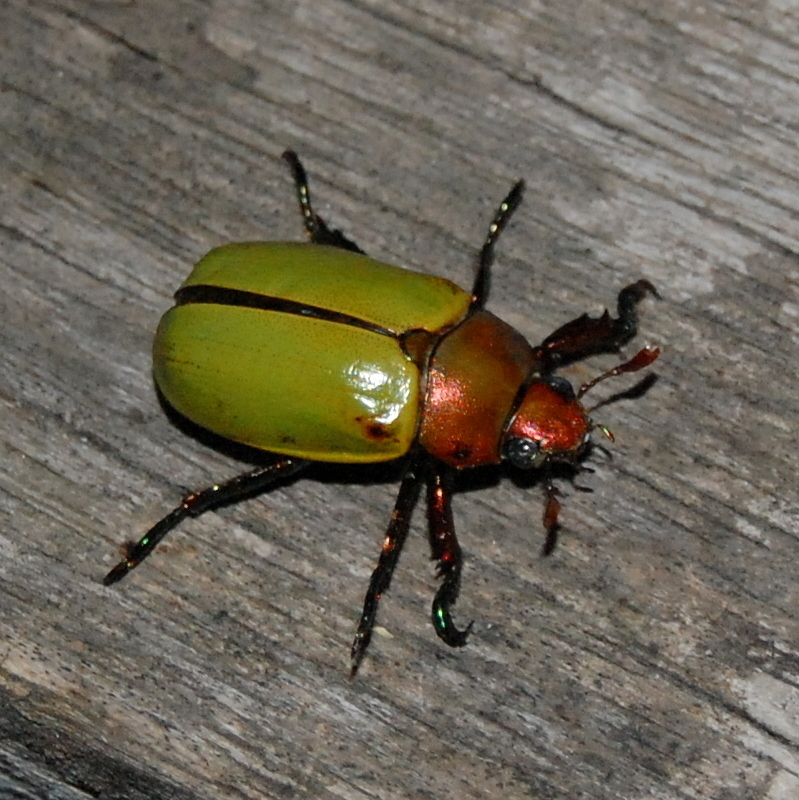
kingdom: Animalia
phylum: Arthropoda
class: Insecta
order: Coleoptera
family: Scarabaeidae
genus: Pelidnota
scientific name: Pelidnota semiaurata
